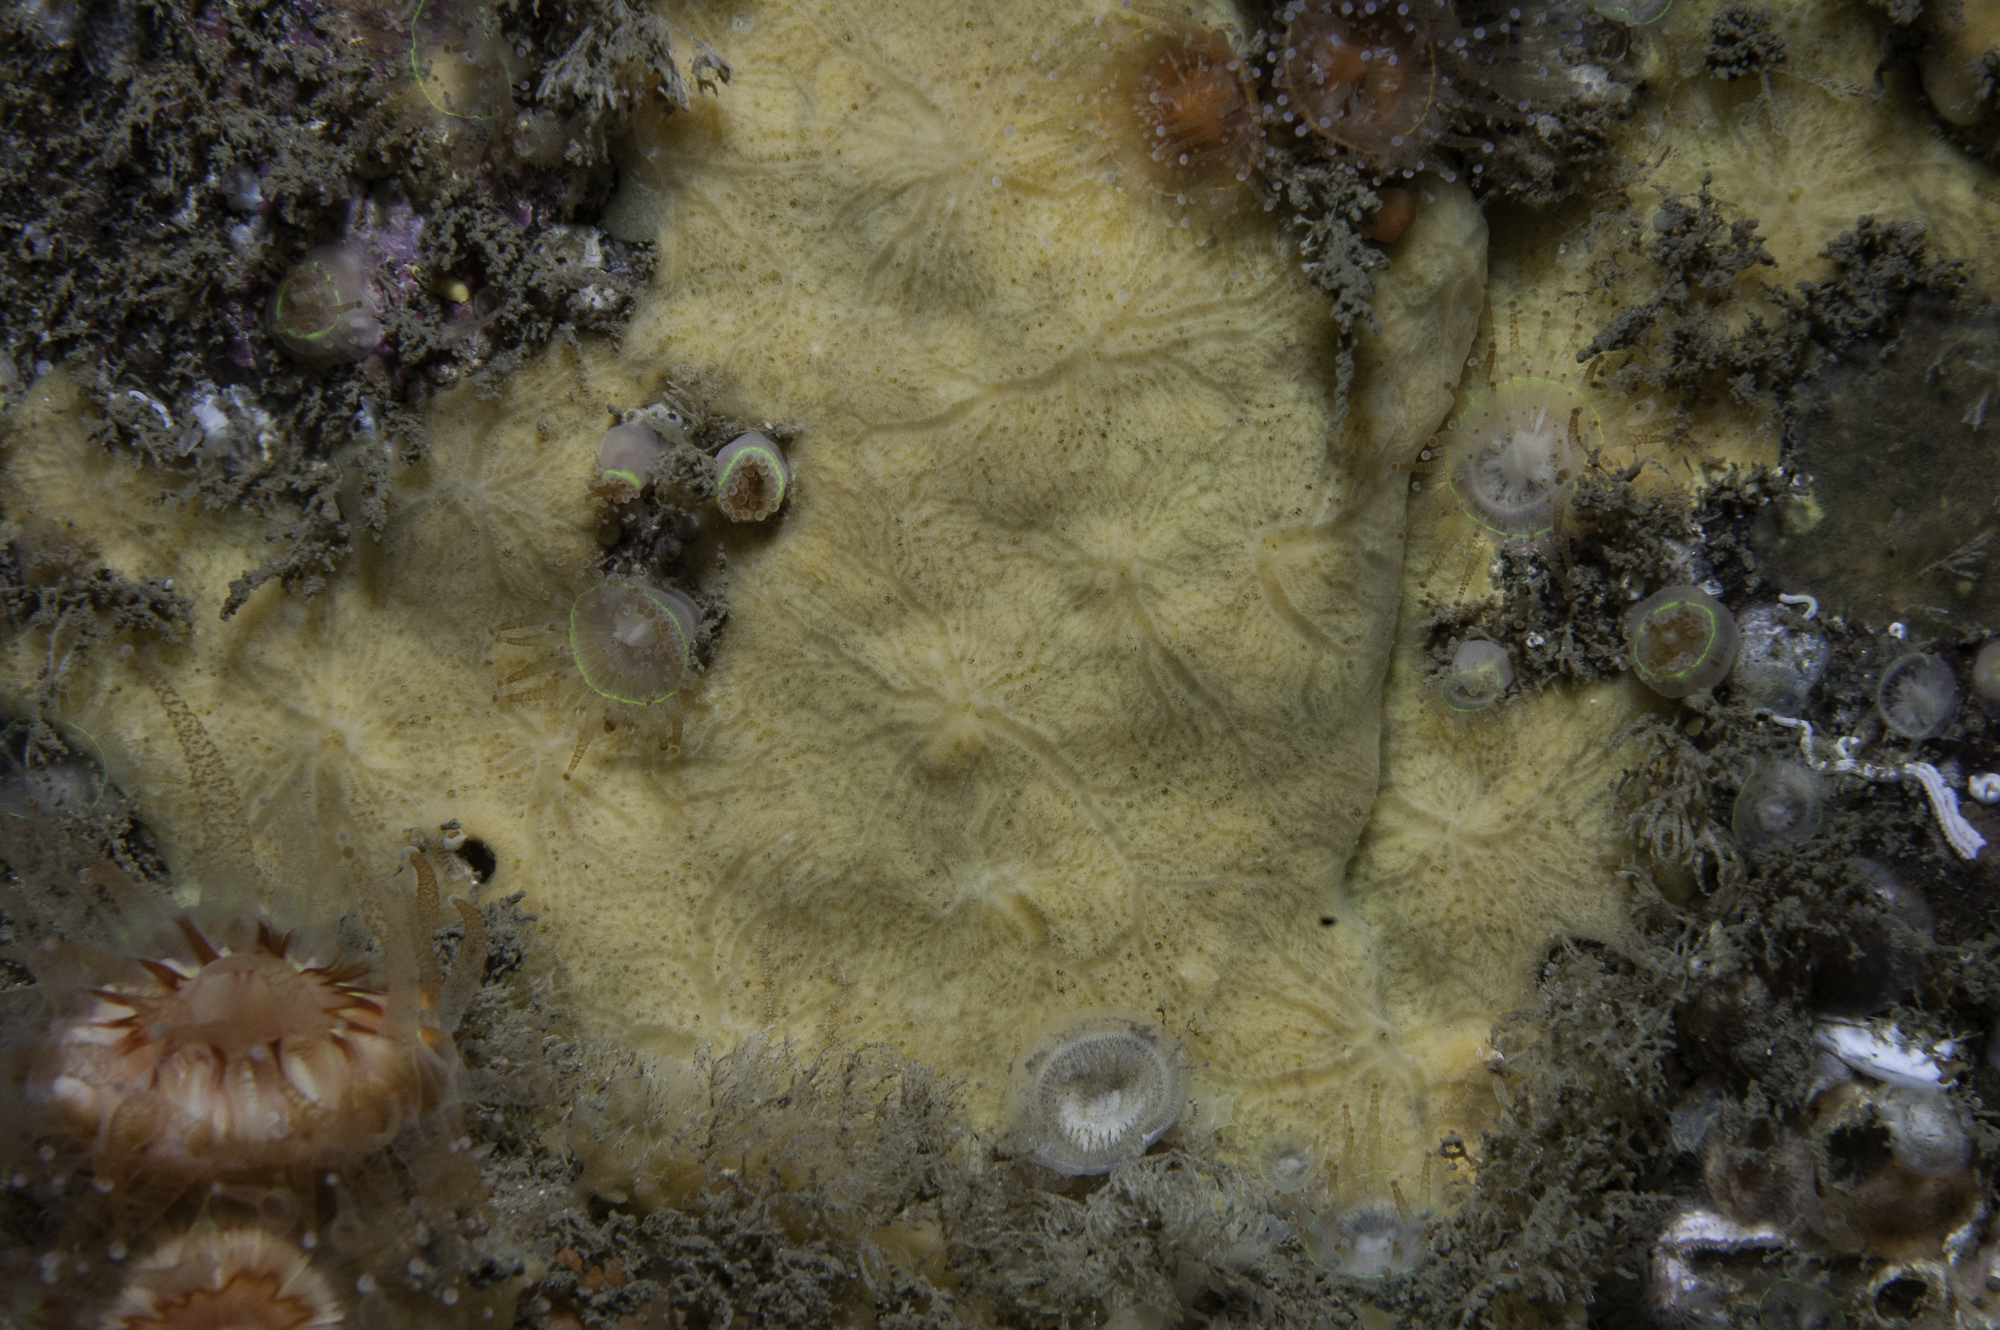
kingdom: Animalia
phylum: Porifera
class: Demospongiae
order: Poecilosclerida
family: Myxillidae
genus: Plocamiancora
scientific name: Plocamiancora arndti
